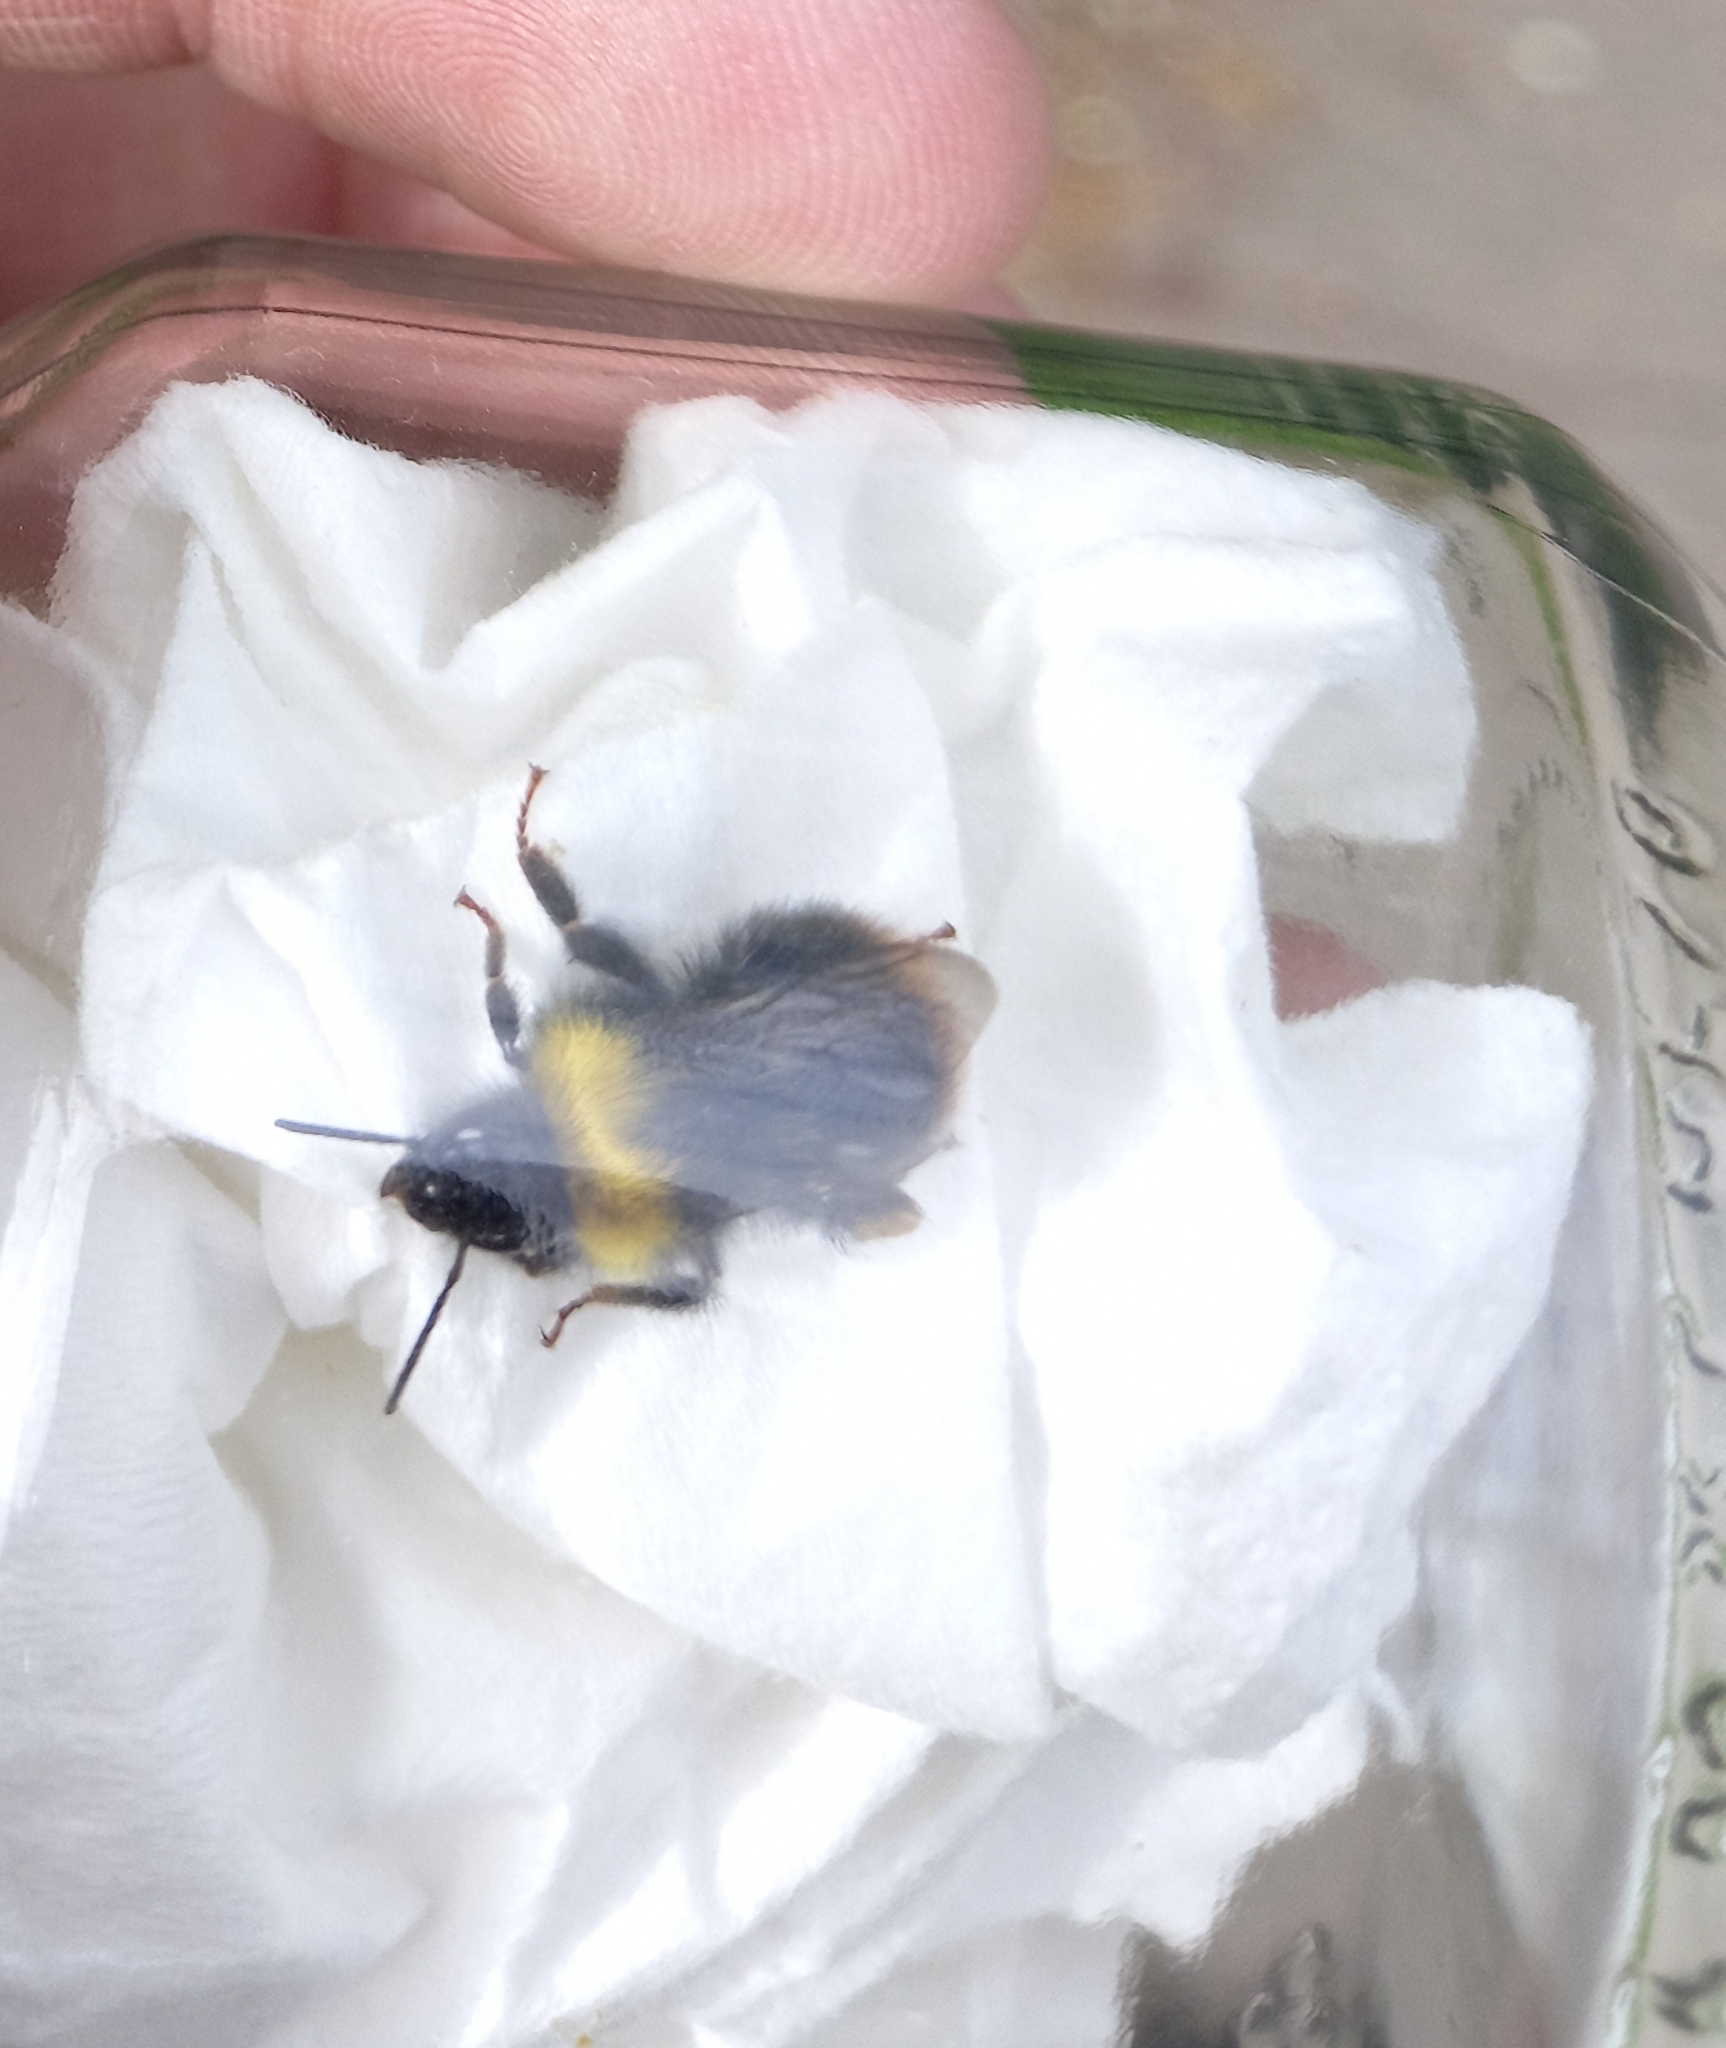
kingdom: Animalia
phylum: Arthropoda
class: Insecta
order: Hymenoptera
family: Apidae
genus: Bombus
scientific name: Bombus pratorum
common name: Early humble-bee
